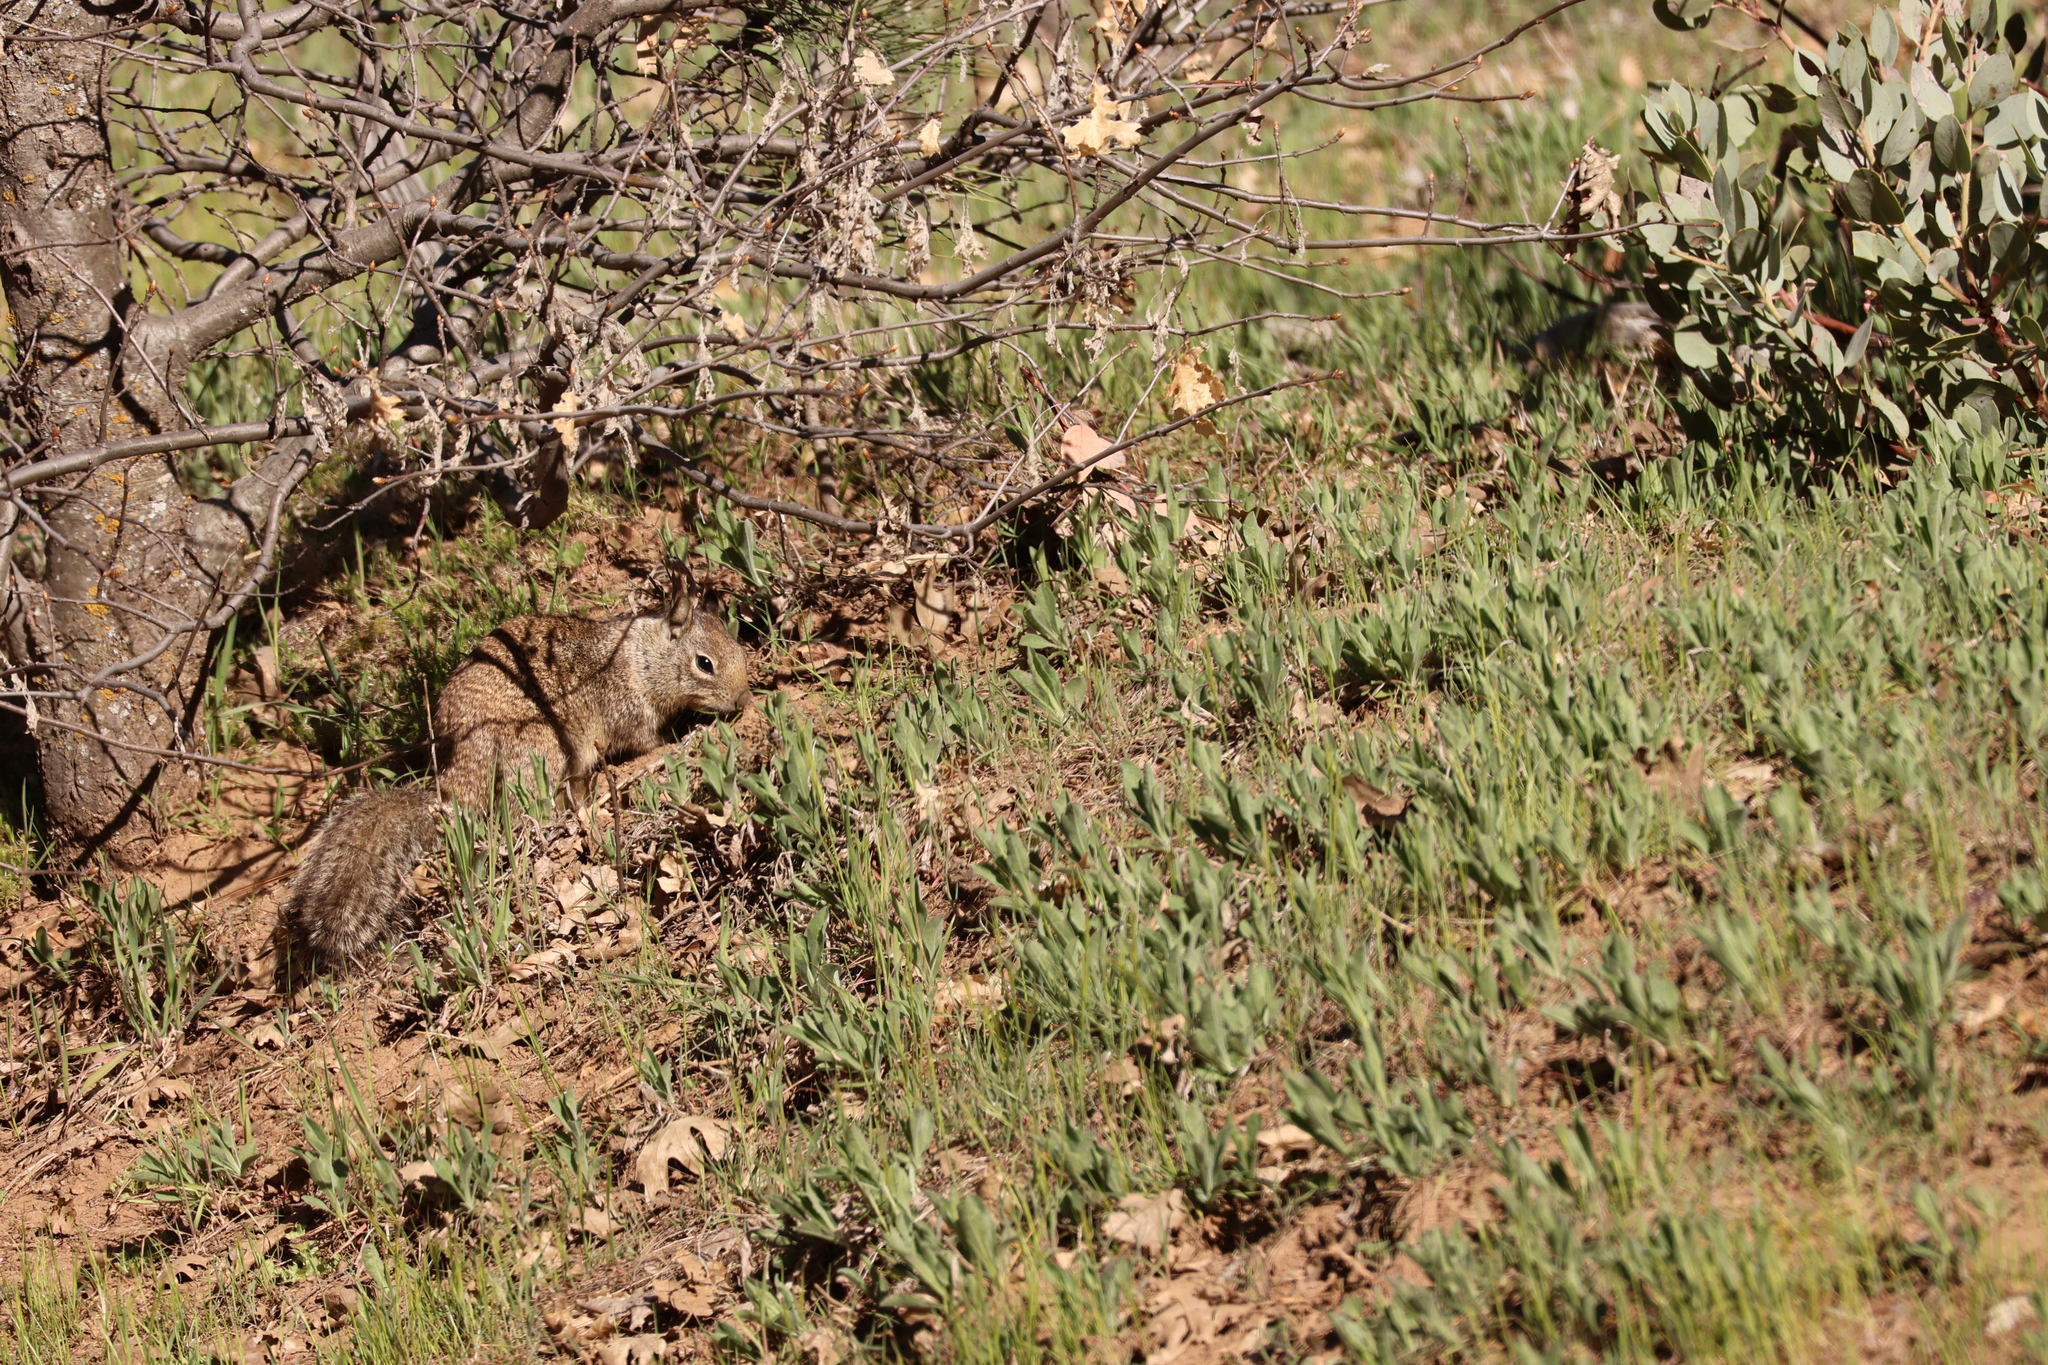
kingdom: Animalia
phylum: Chordata
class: Mammalia
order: Rodentia
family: Sciuridae
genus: Otospermophilus
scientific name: Otospermophilus beecheyi
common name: California ground squirrel
